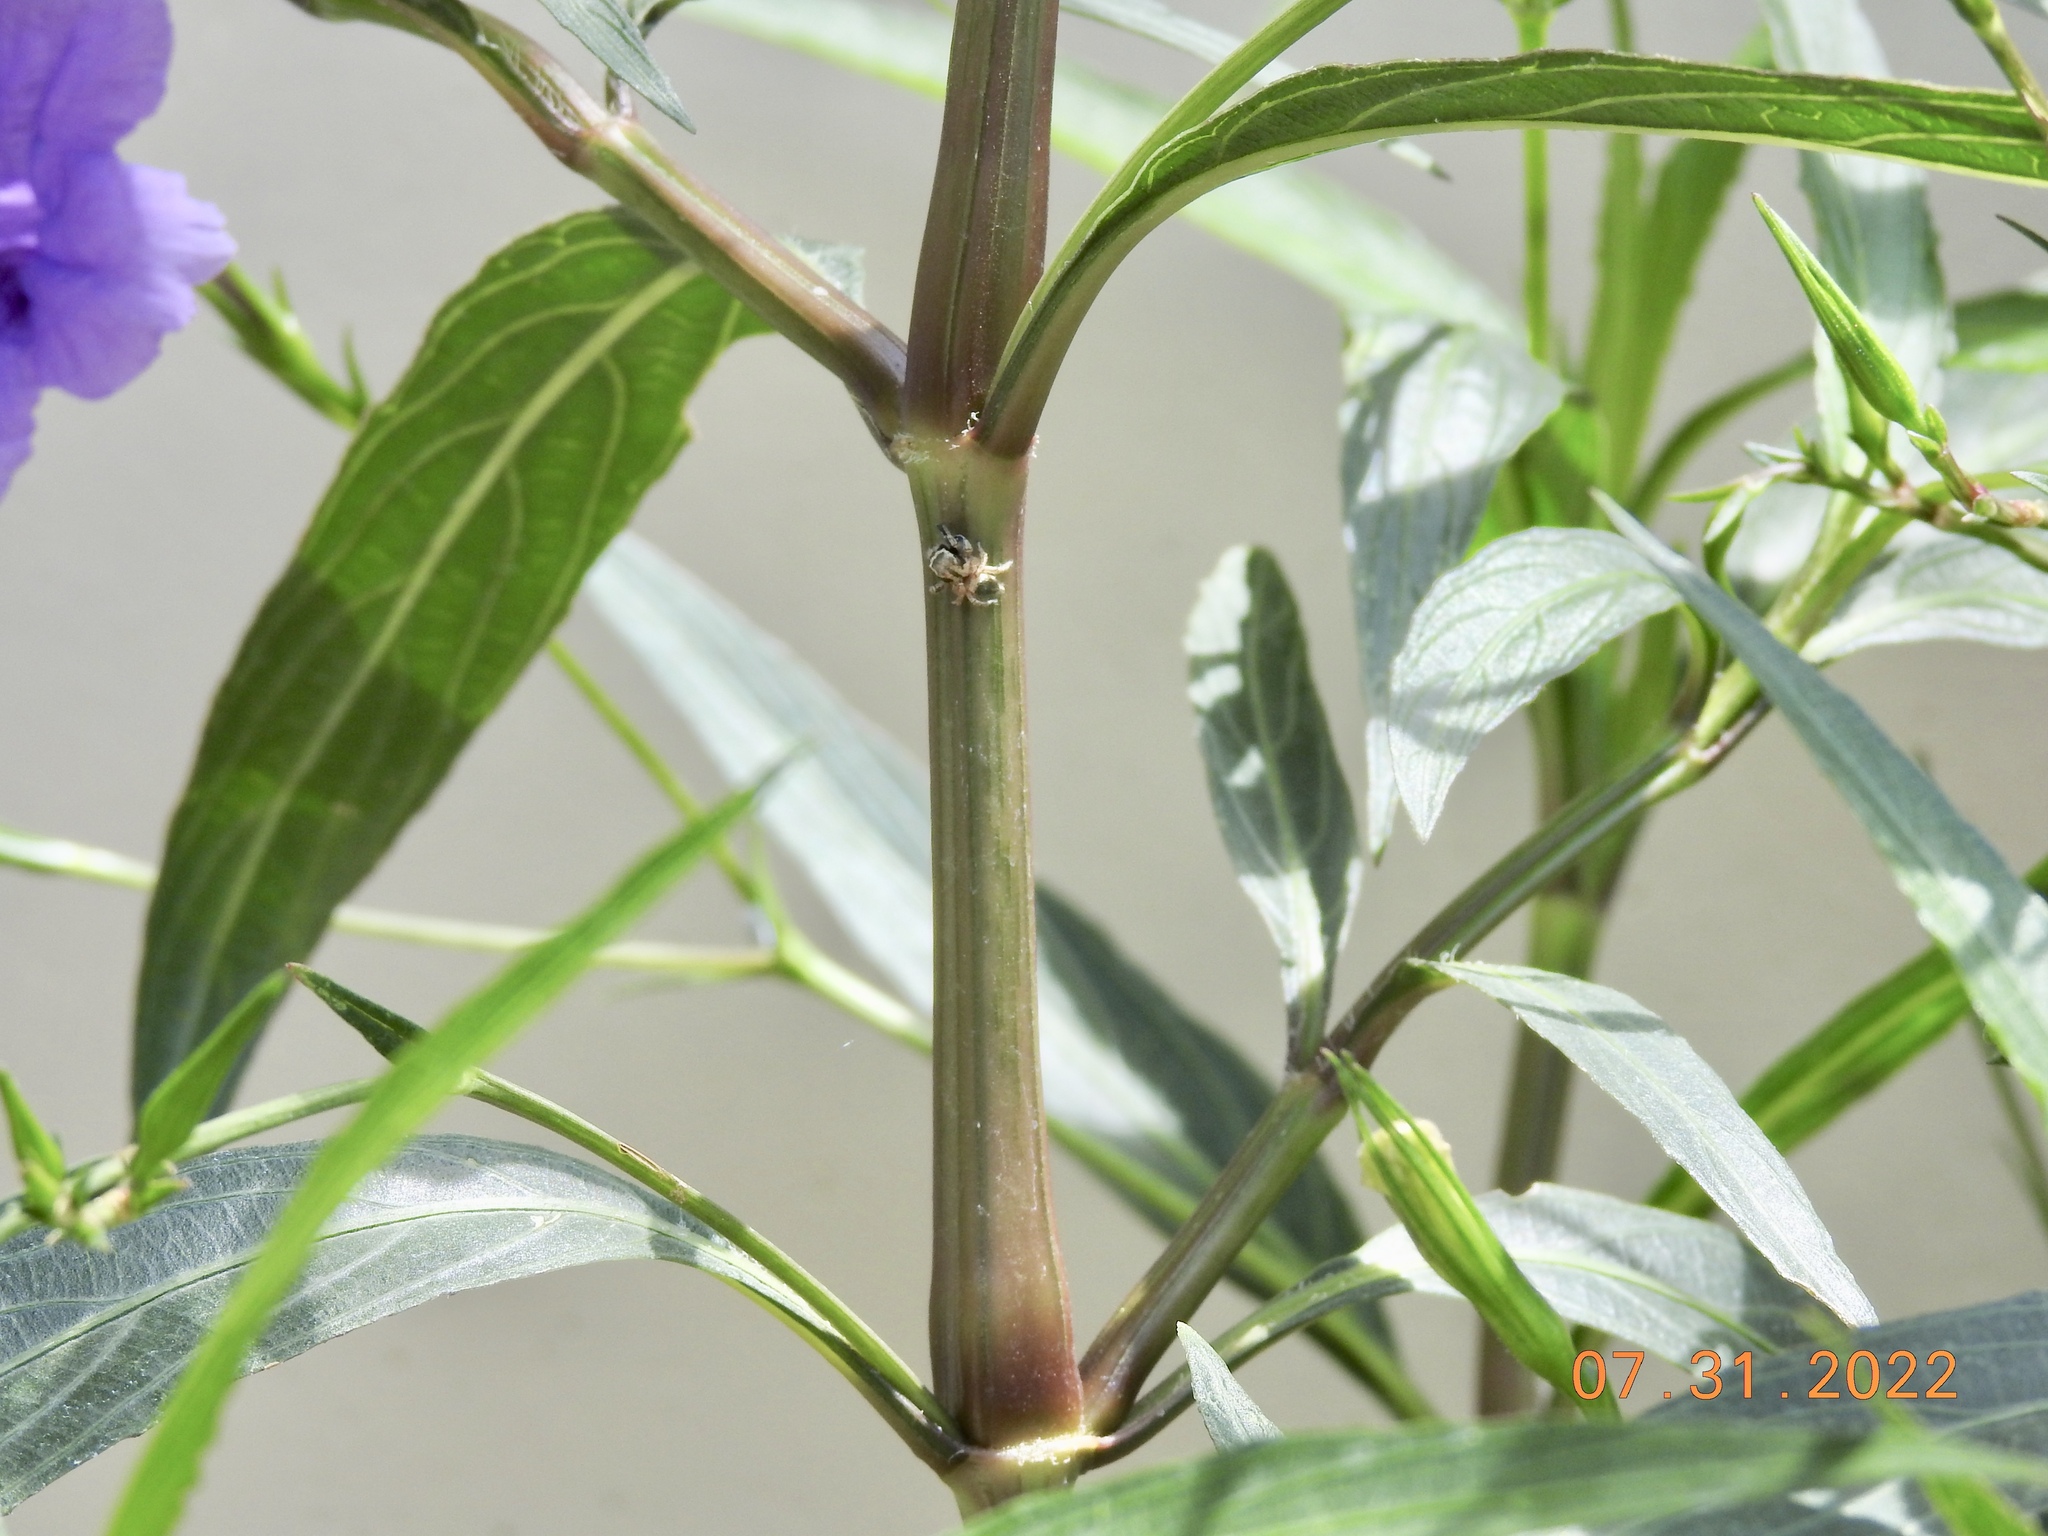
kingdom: Animalia
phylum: Arthropoda
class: Arachnida
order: Araneae
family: Salticidae
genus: Habronattus
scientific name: Habronattus hirsutus
